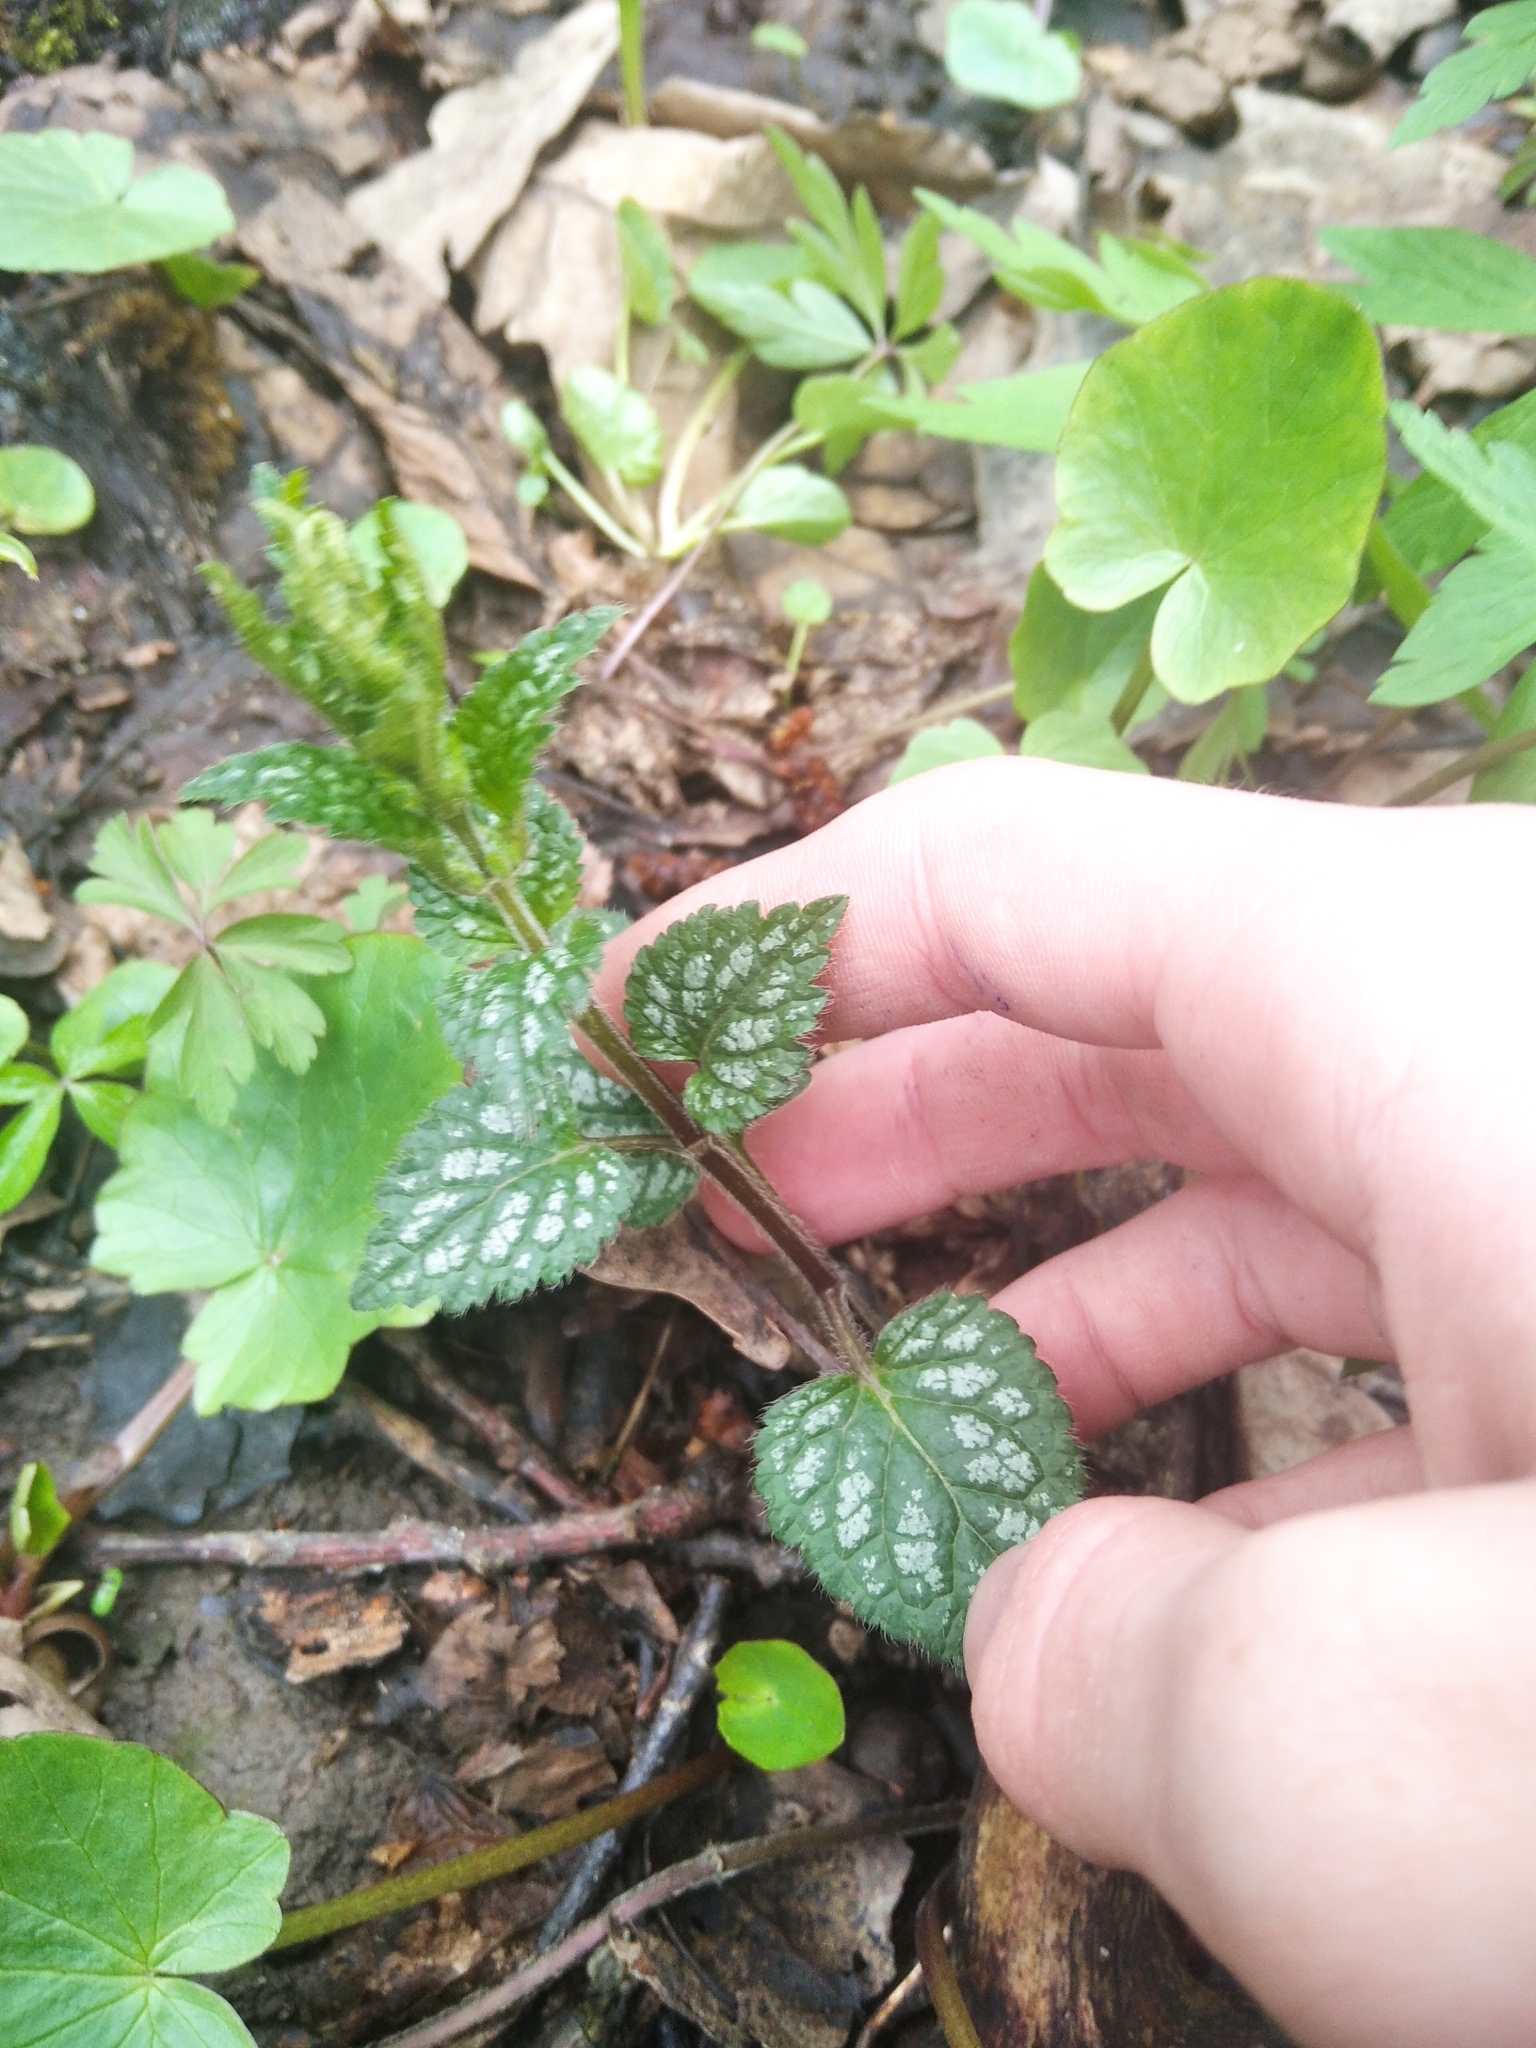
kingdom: Plantae
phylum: Tracheophyta
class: Magnoliopsida
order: Lamiales
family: Lamiaceae
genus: Lamium
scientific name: Lamium galeobdolon
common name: Yellow archangel
